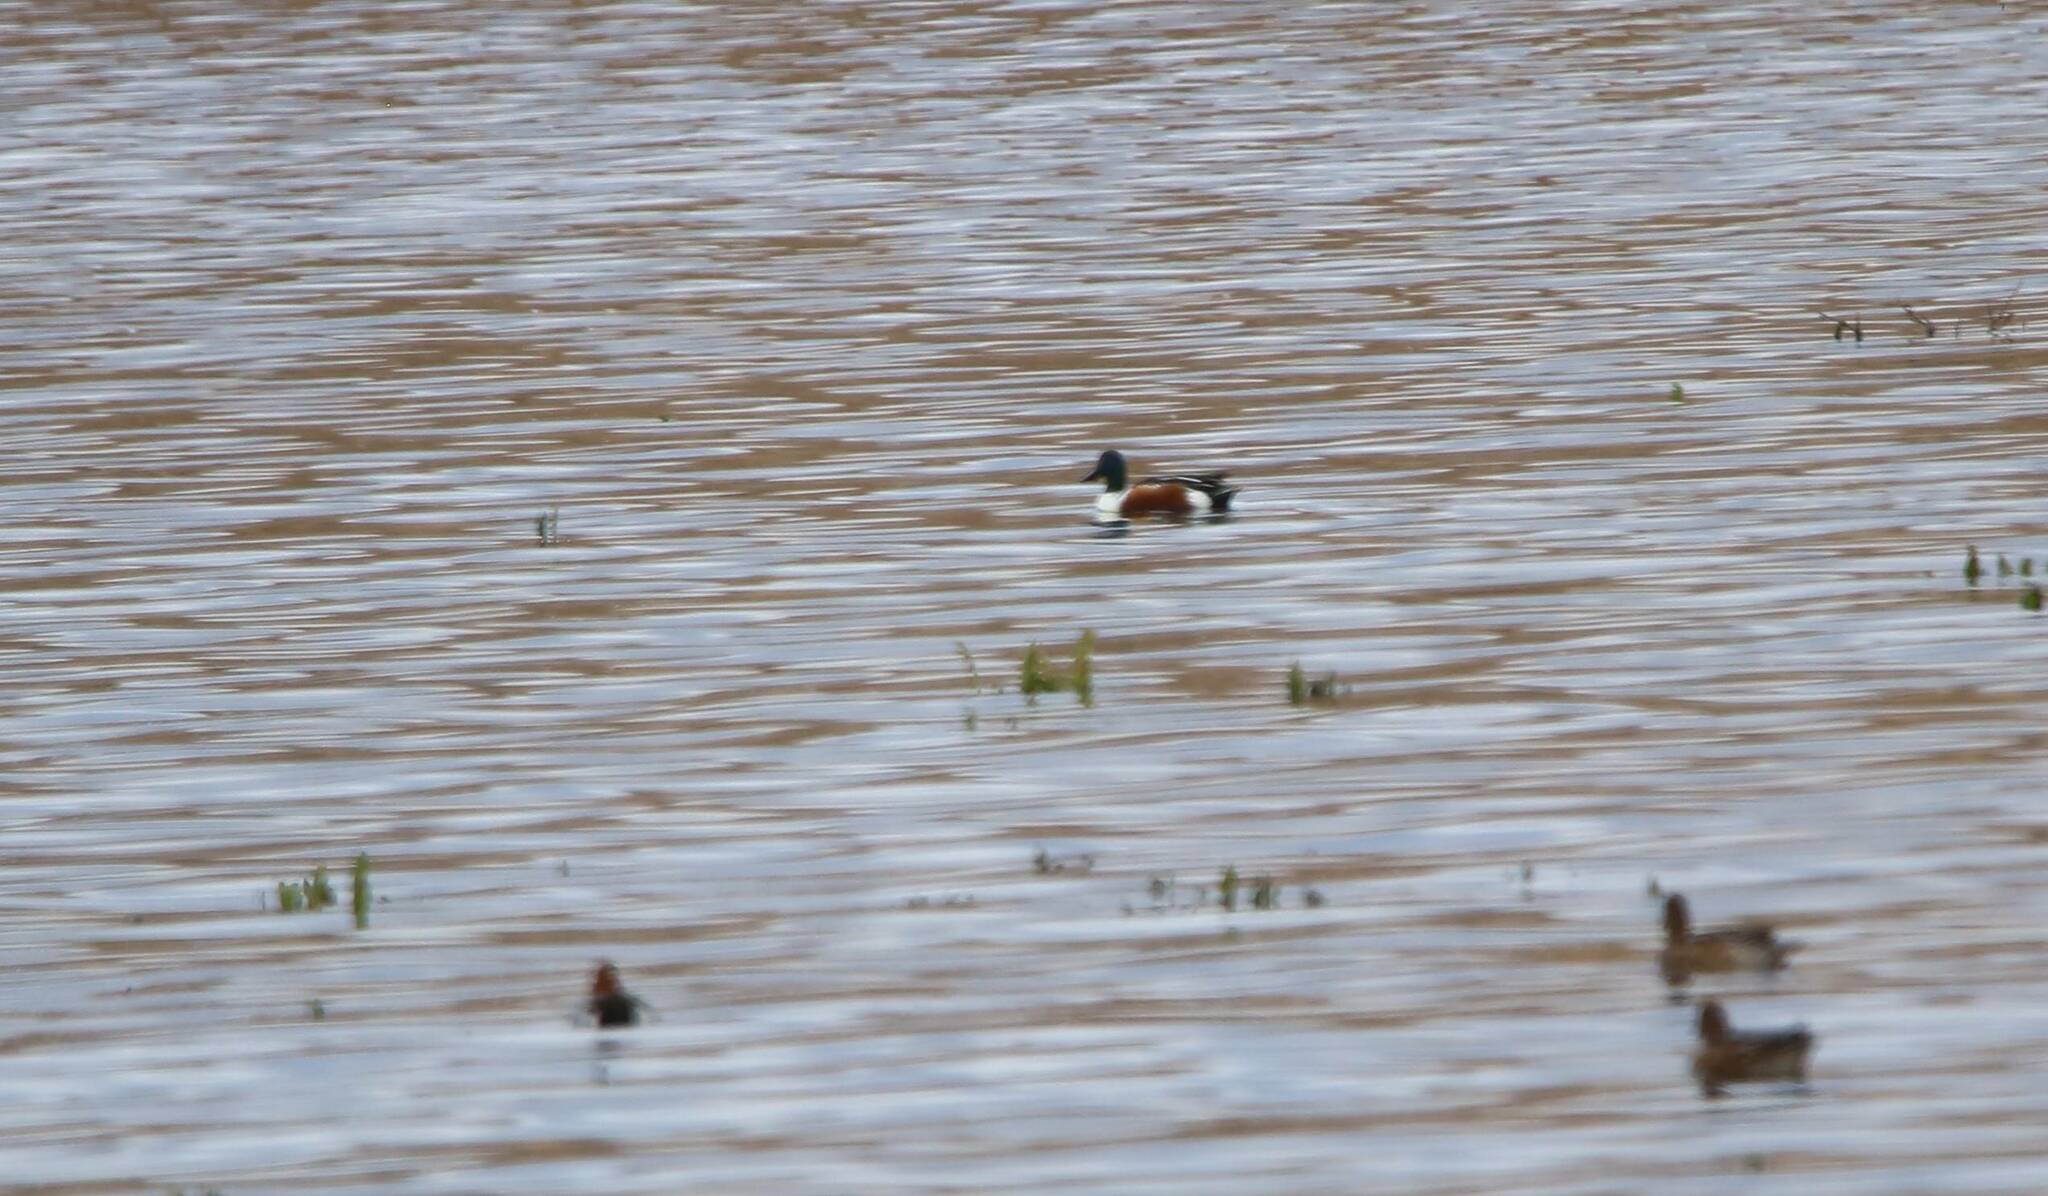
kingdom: Animalia
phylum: Chordata
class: Aves
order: Anseriformes
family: Anatidae
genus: Spatula
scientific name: Spatula clypeata
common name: Northern shoveler
